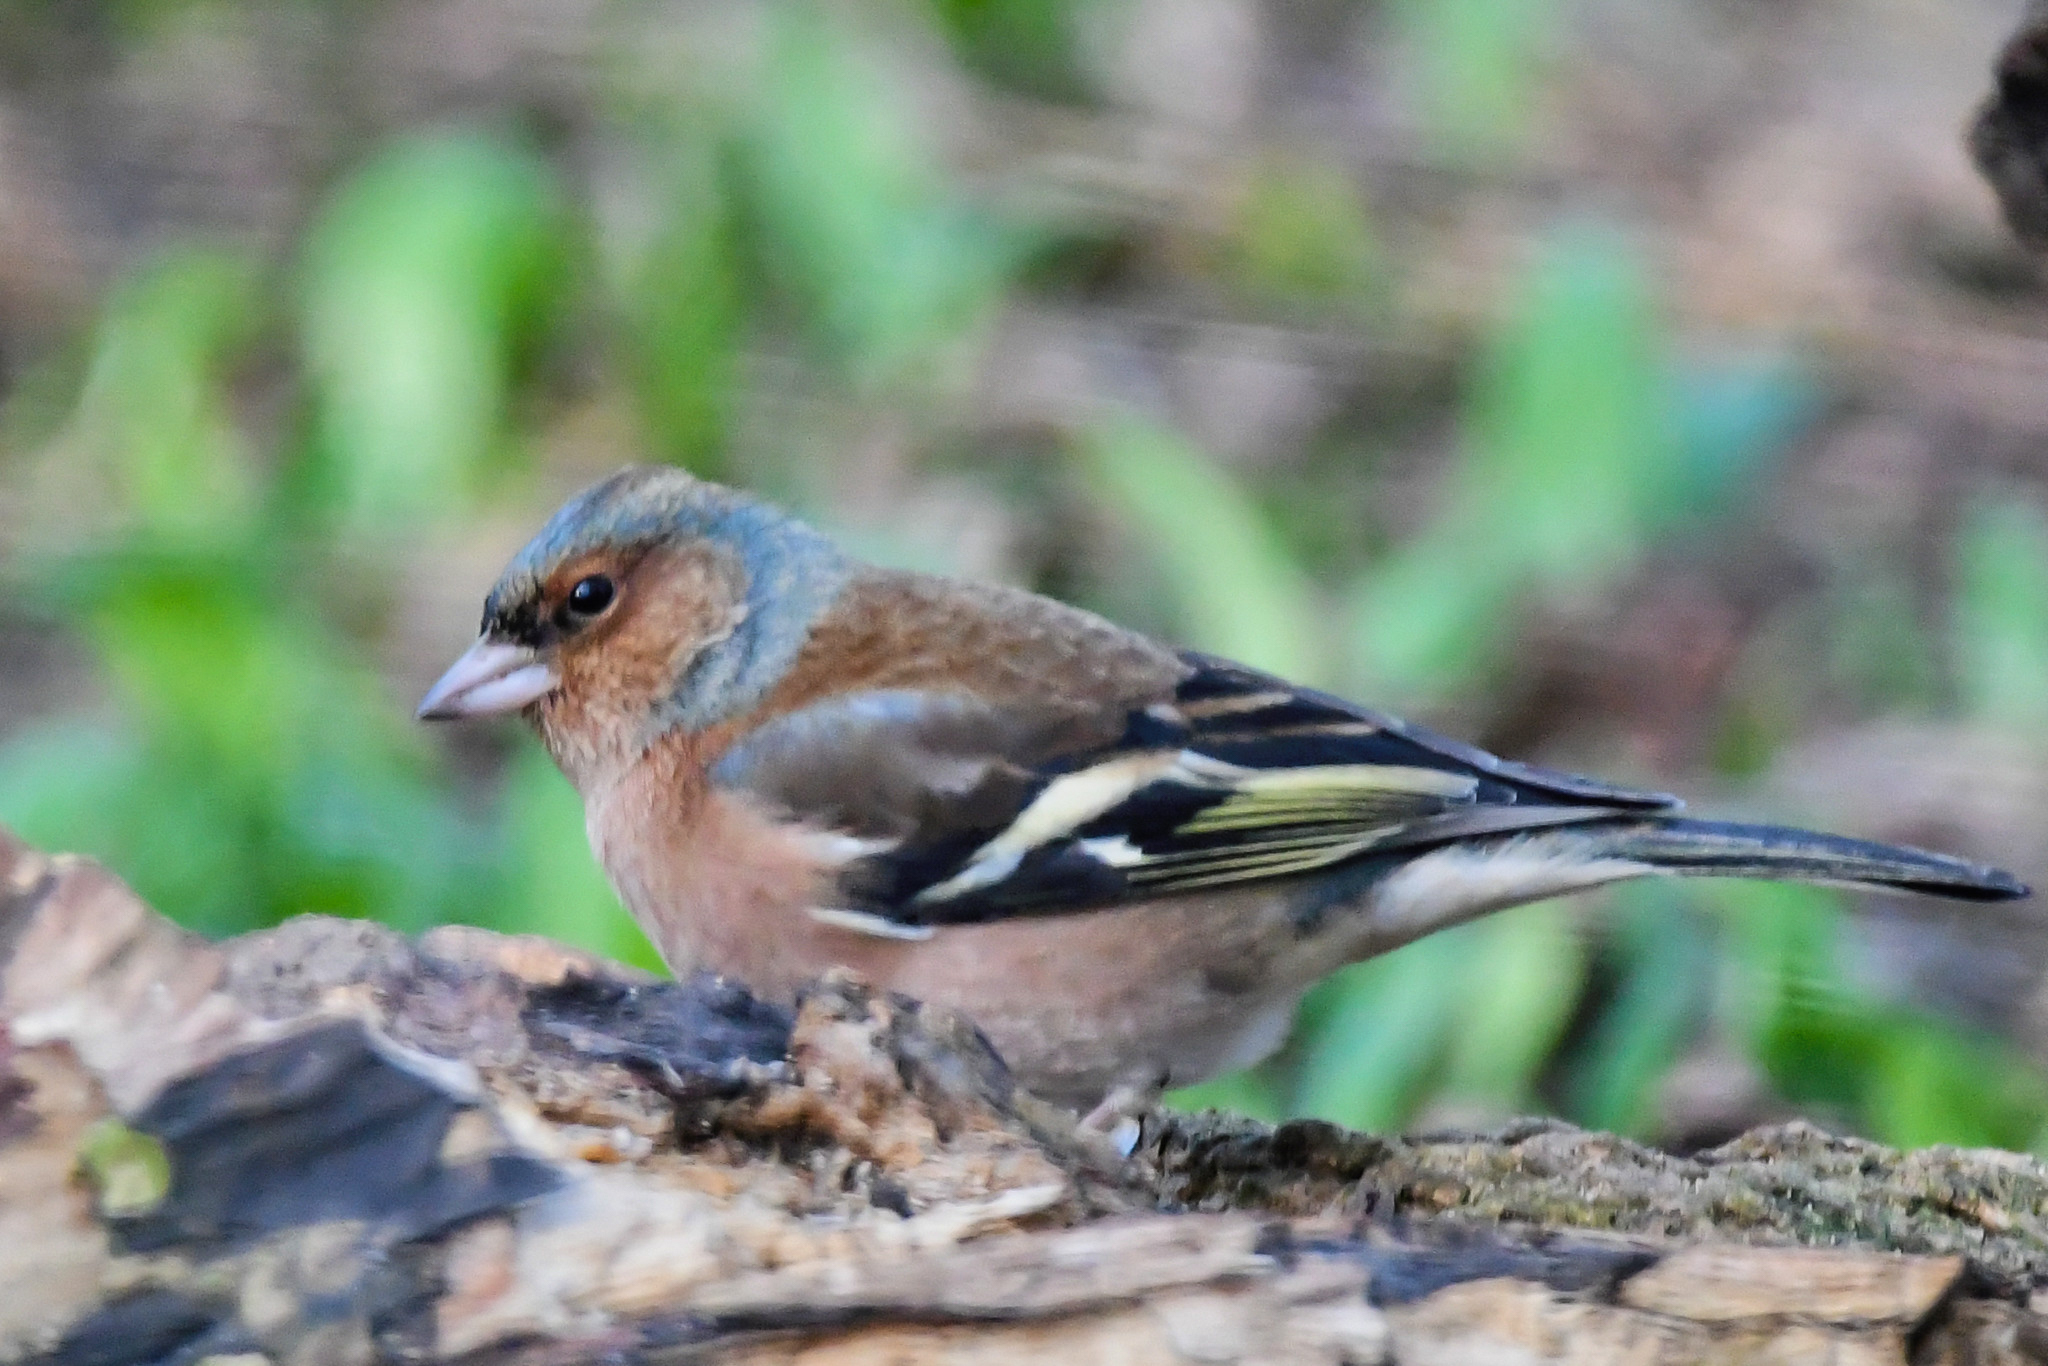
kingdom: Animalia
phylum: Chordata
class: Aves
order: Passeriformes
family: Fringillidae
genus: Fringilla
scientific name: Fringilla coelebs
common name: Common chaffinch
